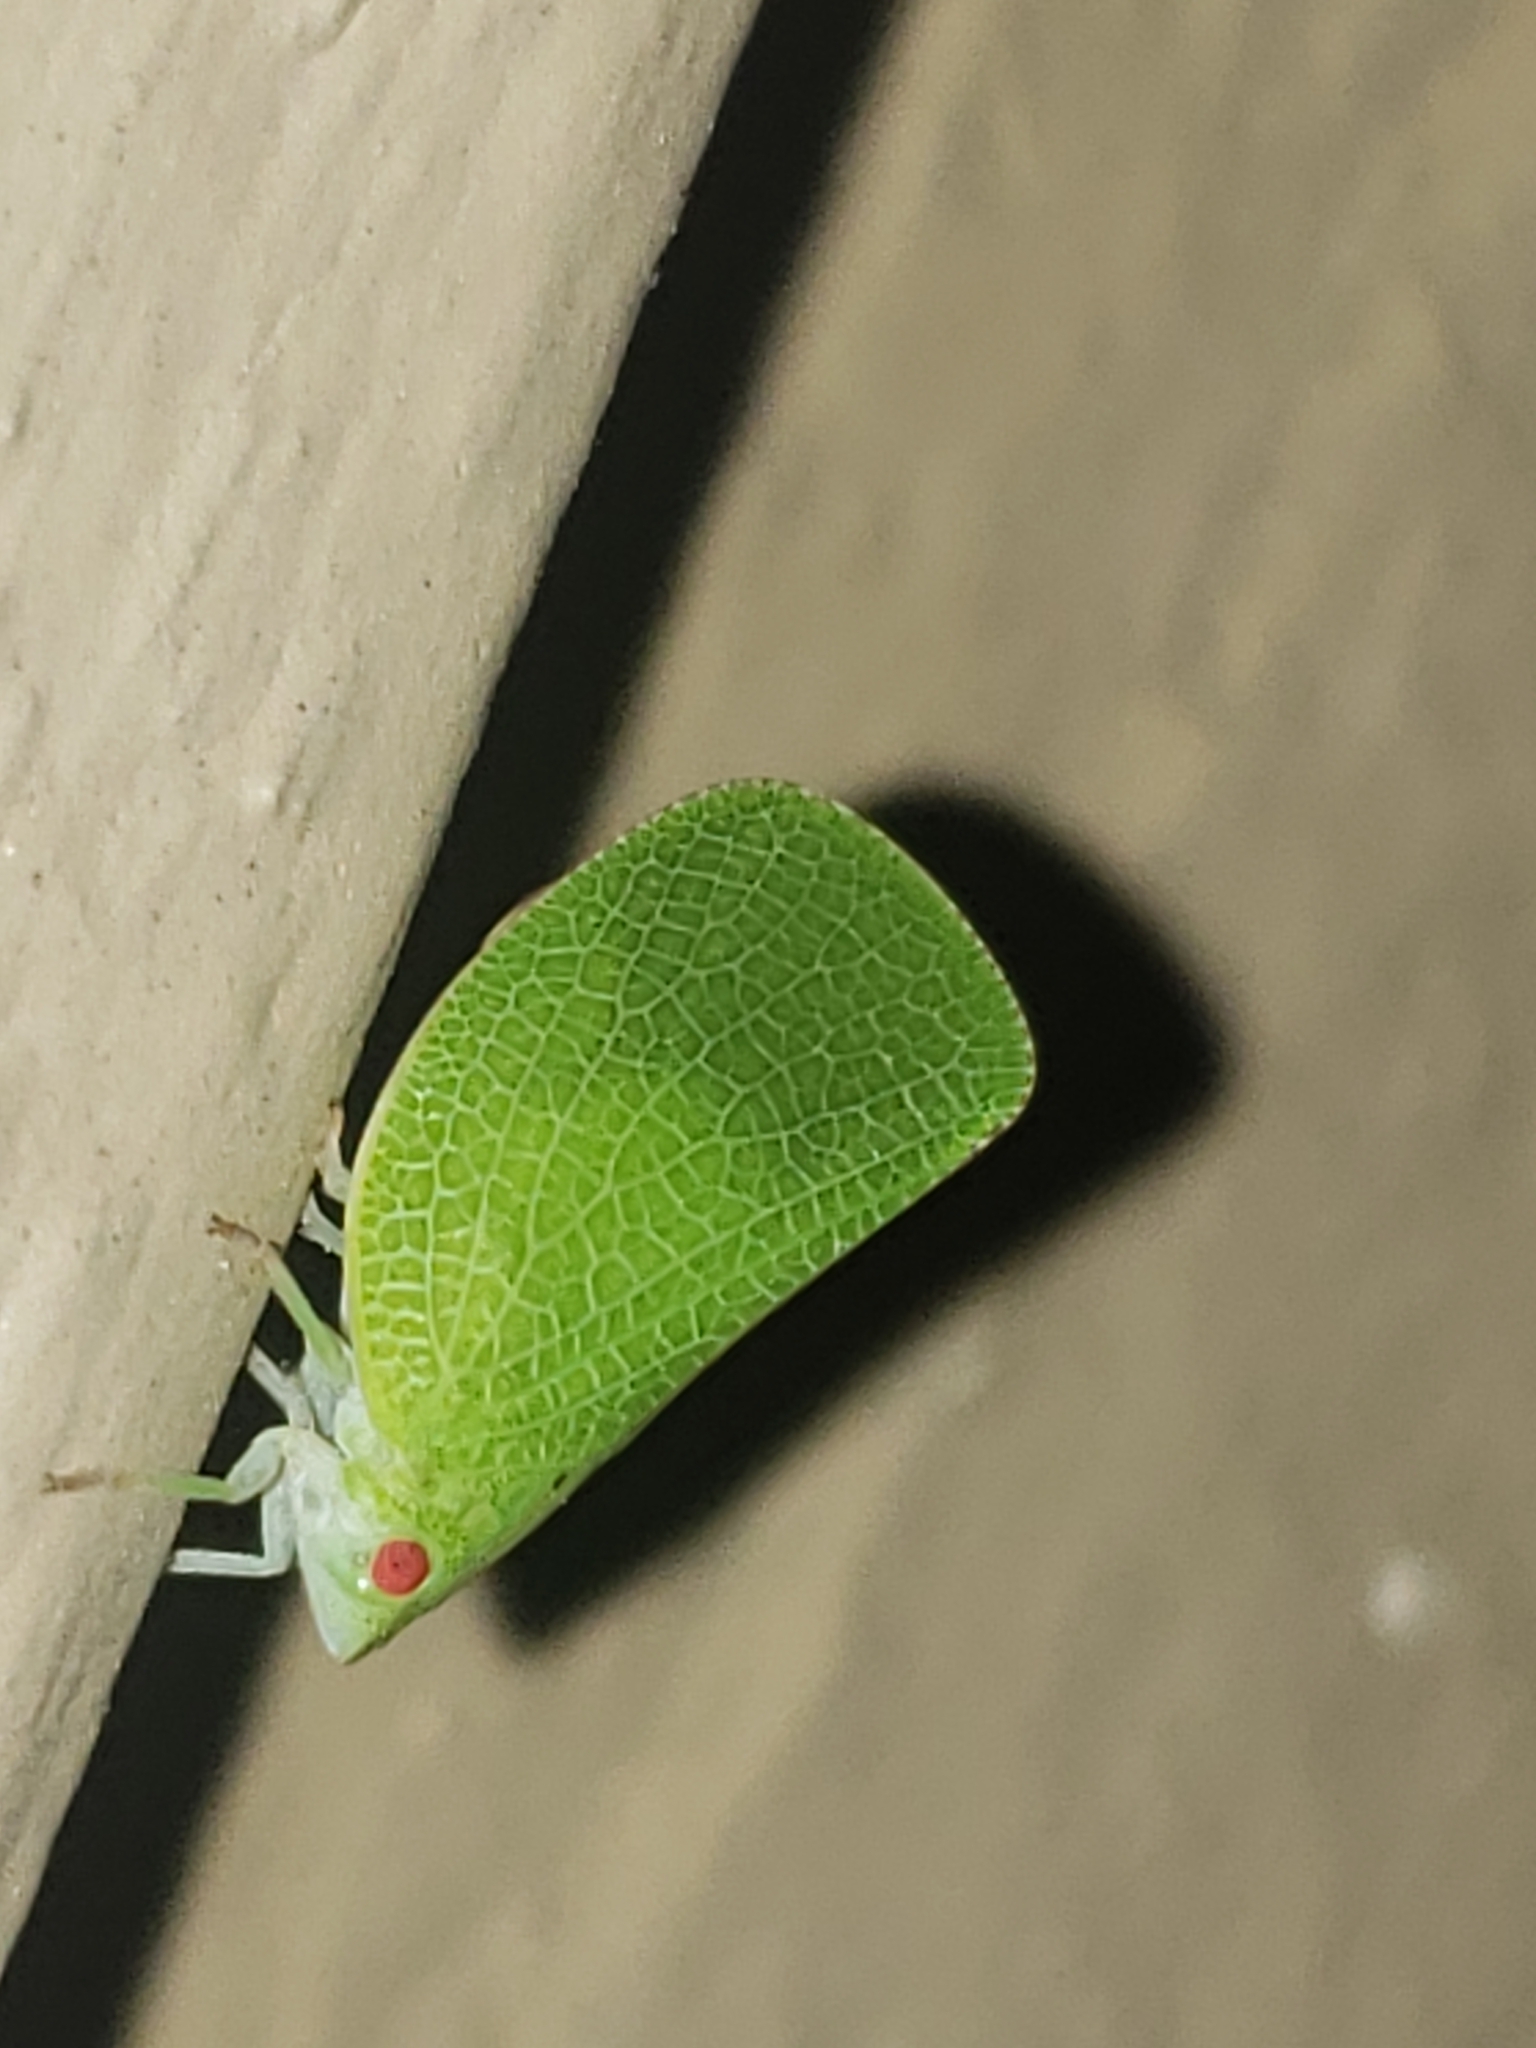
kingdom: Animalia
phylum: Arthropoda
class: Insecta
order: Hemiptera
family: Acanaloniidae
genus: Acanalonia
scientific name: Acanalonia conica
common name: Green cone-headed planthopper
